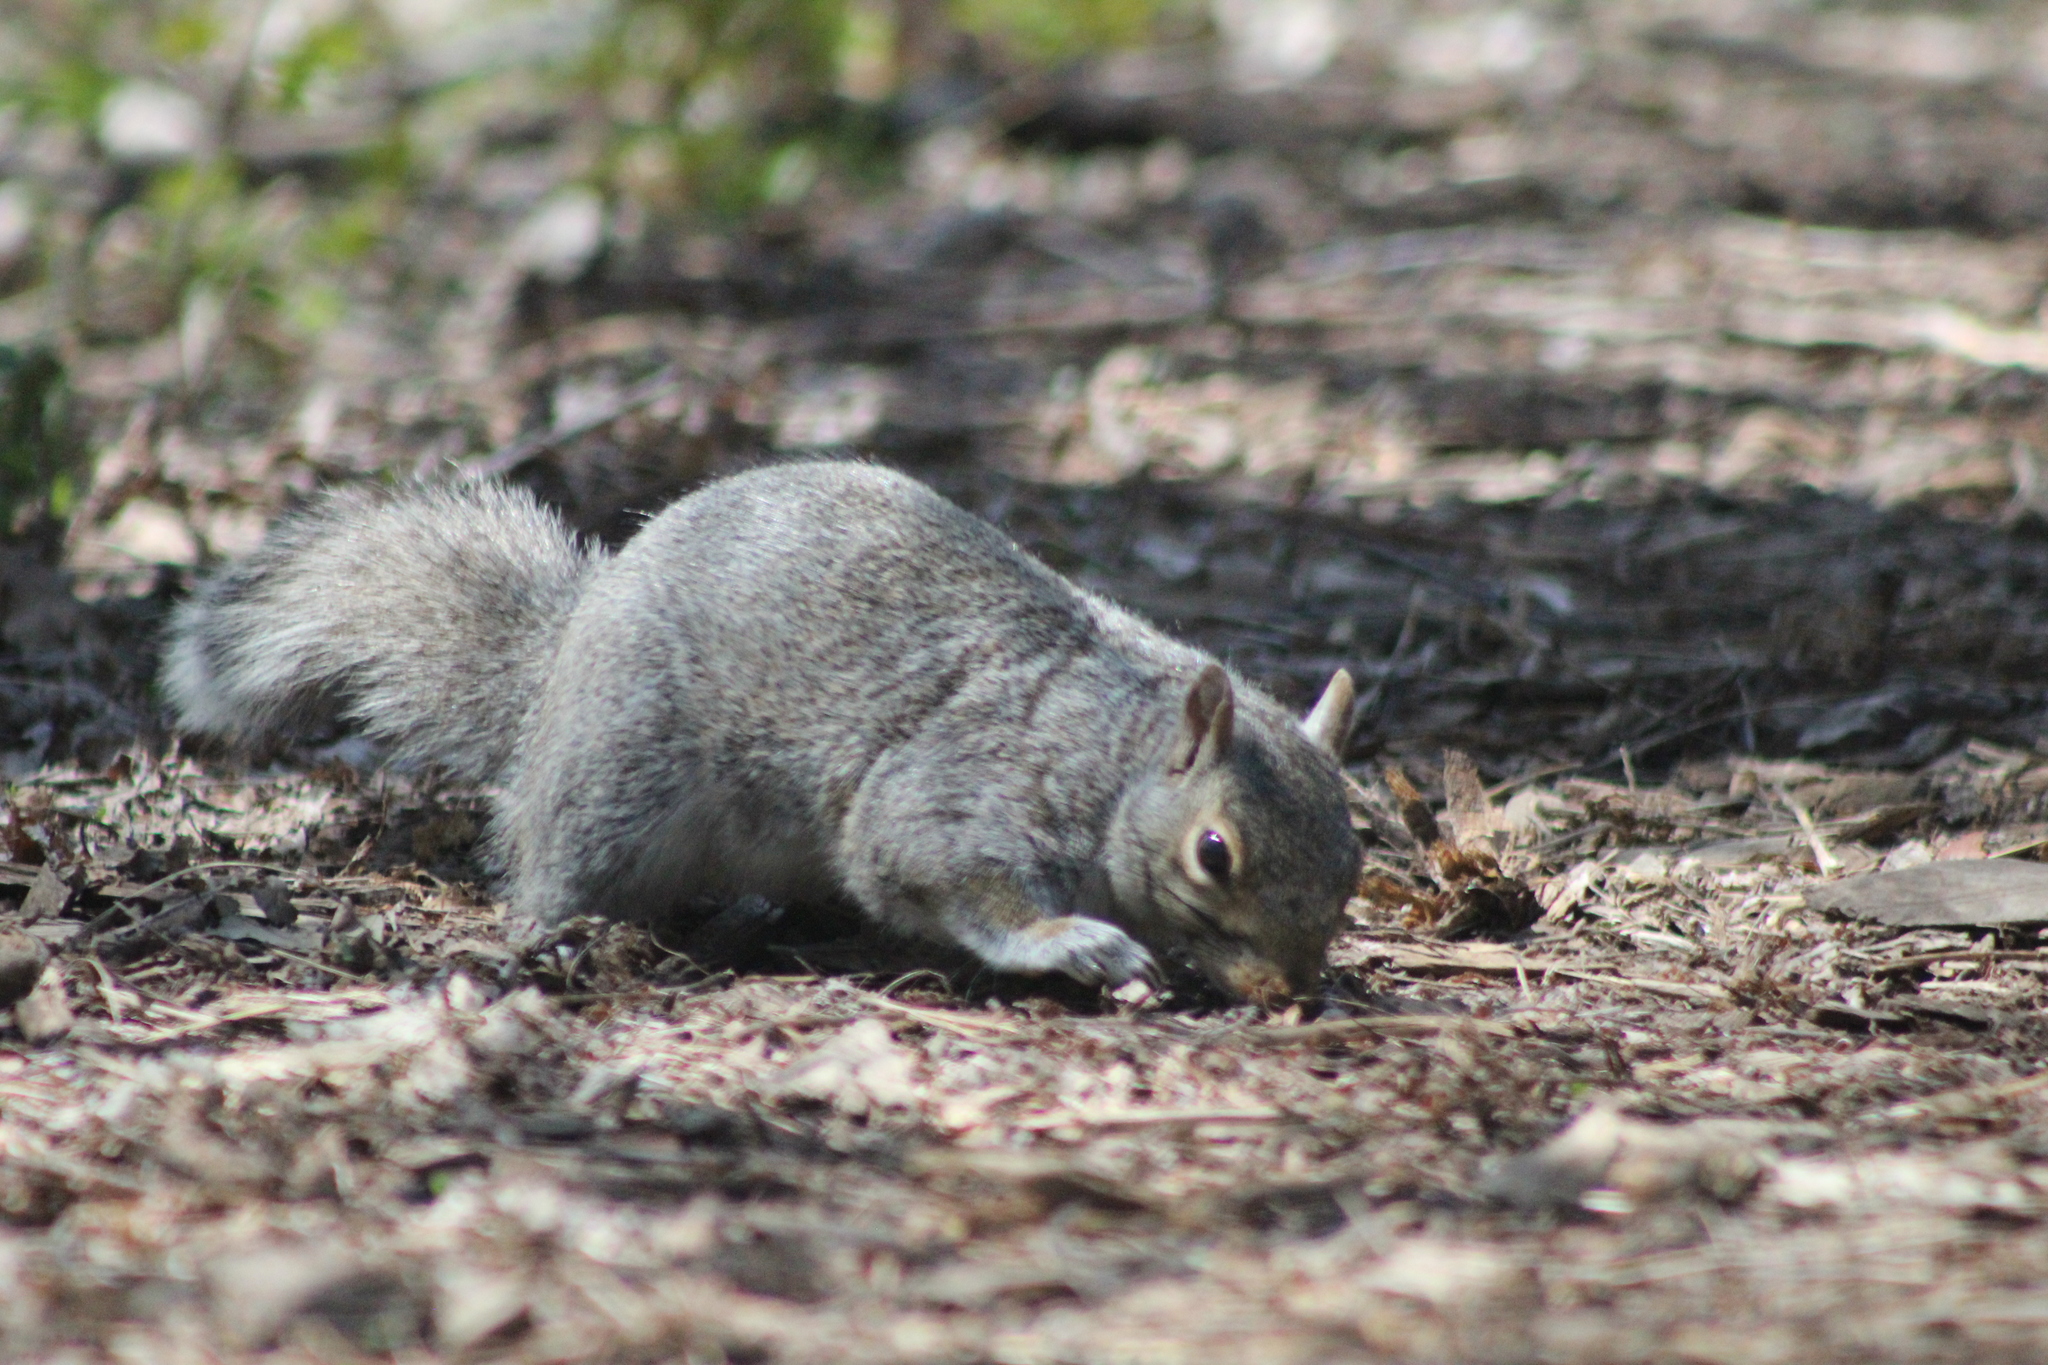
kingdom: Animalia
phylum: Chordata
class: Mammalia
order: Rodentia
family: Sciuridae
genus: Sciurus
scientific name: Sciurus carolinensis
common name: Eastern gray squirrel
